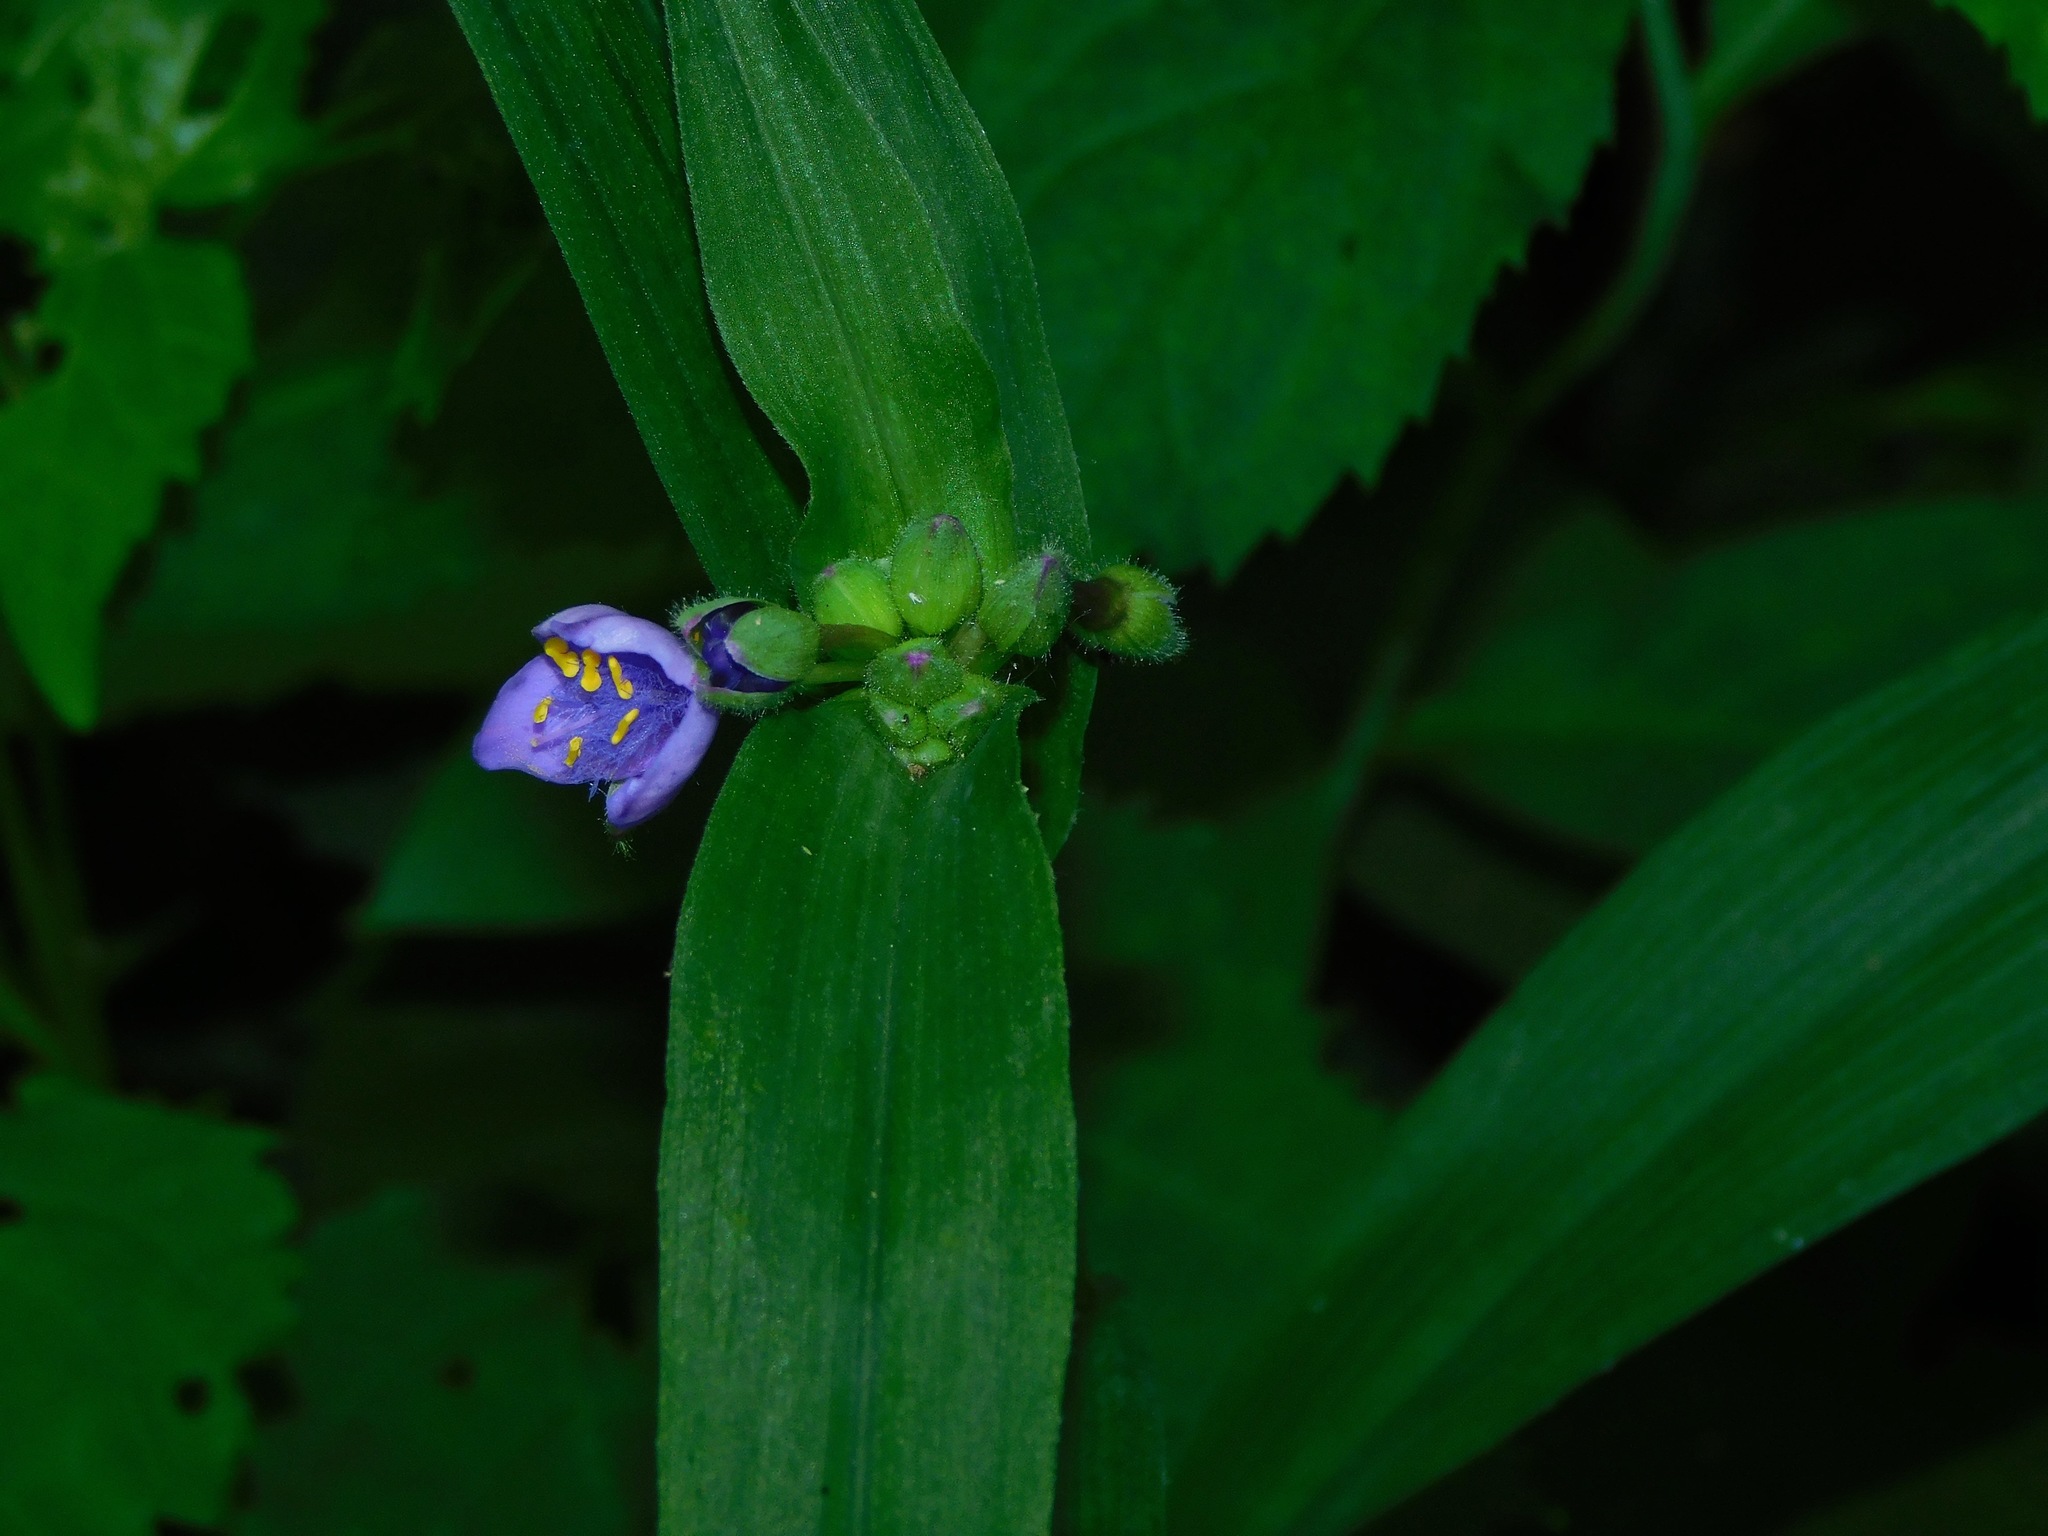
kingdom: Plantae
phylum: Tracheophyta
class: Liliopsida
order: Commelinales
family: Commelinaceae
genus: Tradescantia
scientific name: Tradescantia subaspera
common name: Wide-leaf spiderwort
